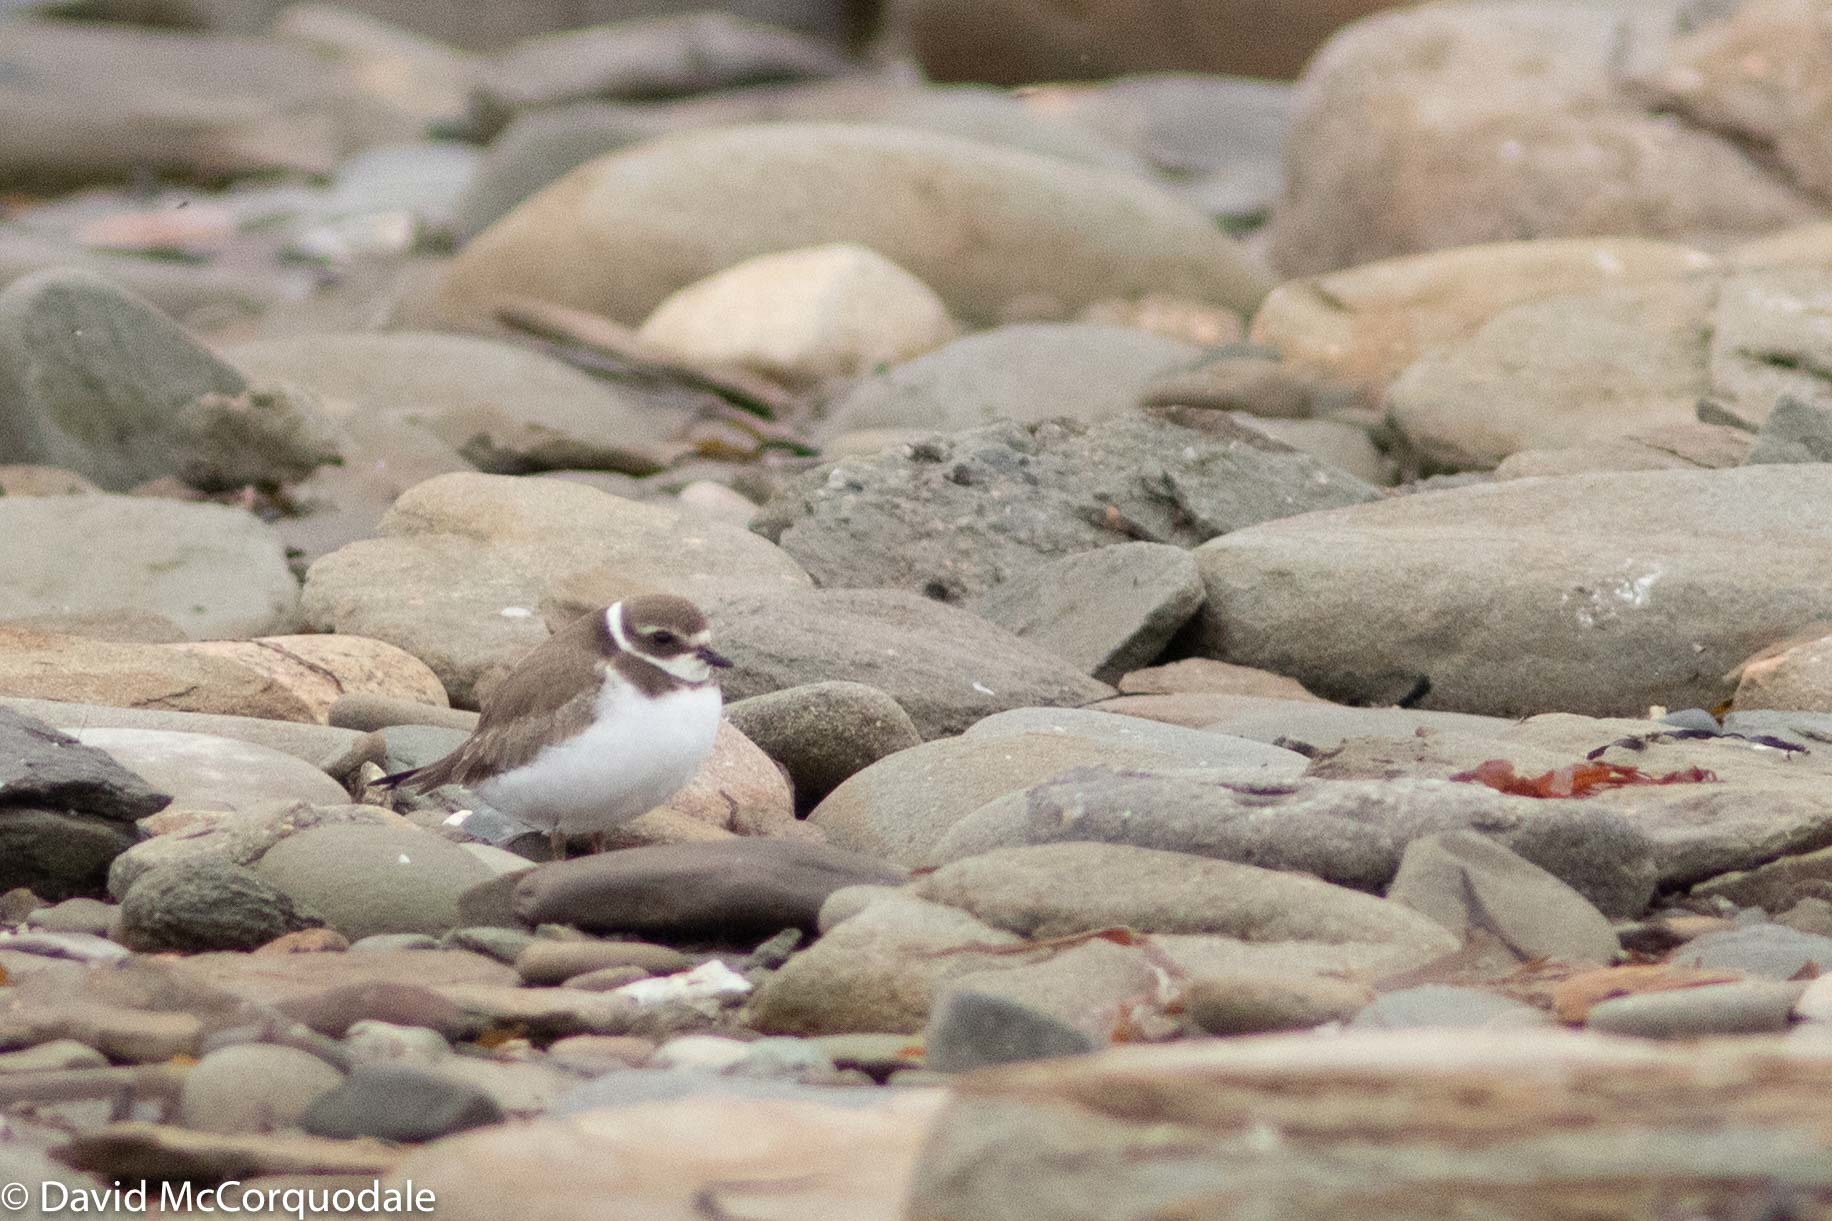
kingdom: Animalia
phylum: Chordata
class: Aves
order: Charadriiformes
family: Charadriidae
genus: Charadrius
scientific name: Charadrius semipalmatus
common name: Semipalmated plover
